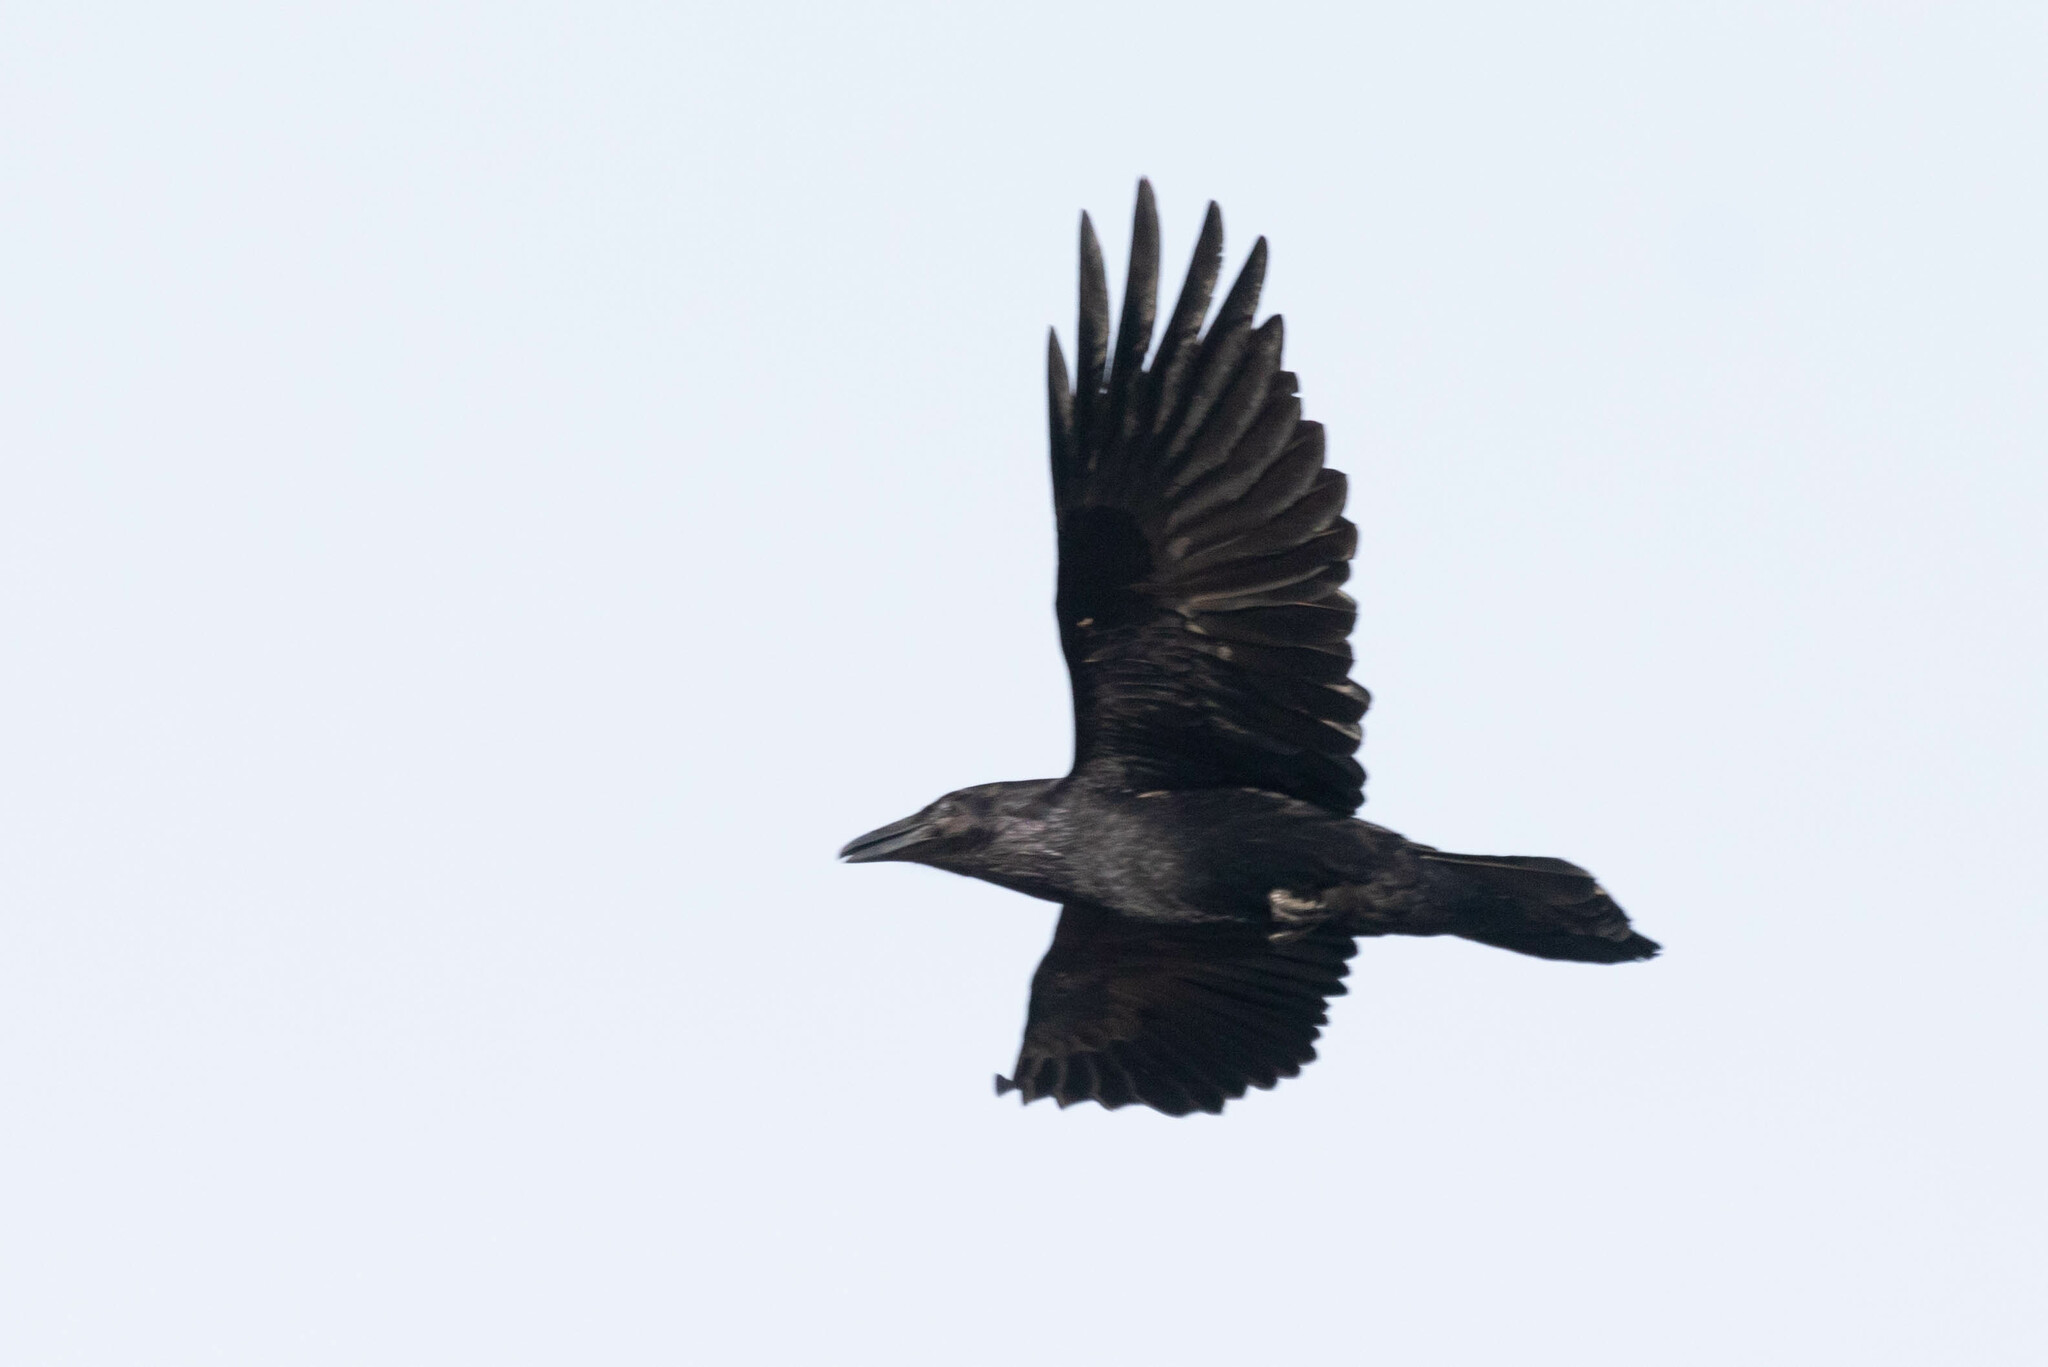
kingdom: Animalia
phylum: Chordata
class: Aves
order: Passeriformes
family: Corvidae
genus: Corvus
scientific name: Corvus corax
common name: Common raven
